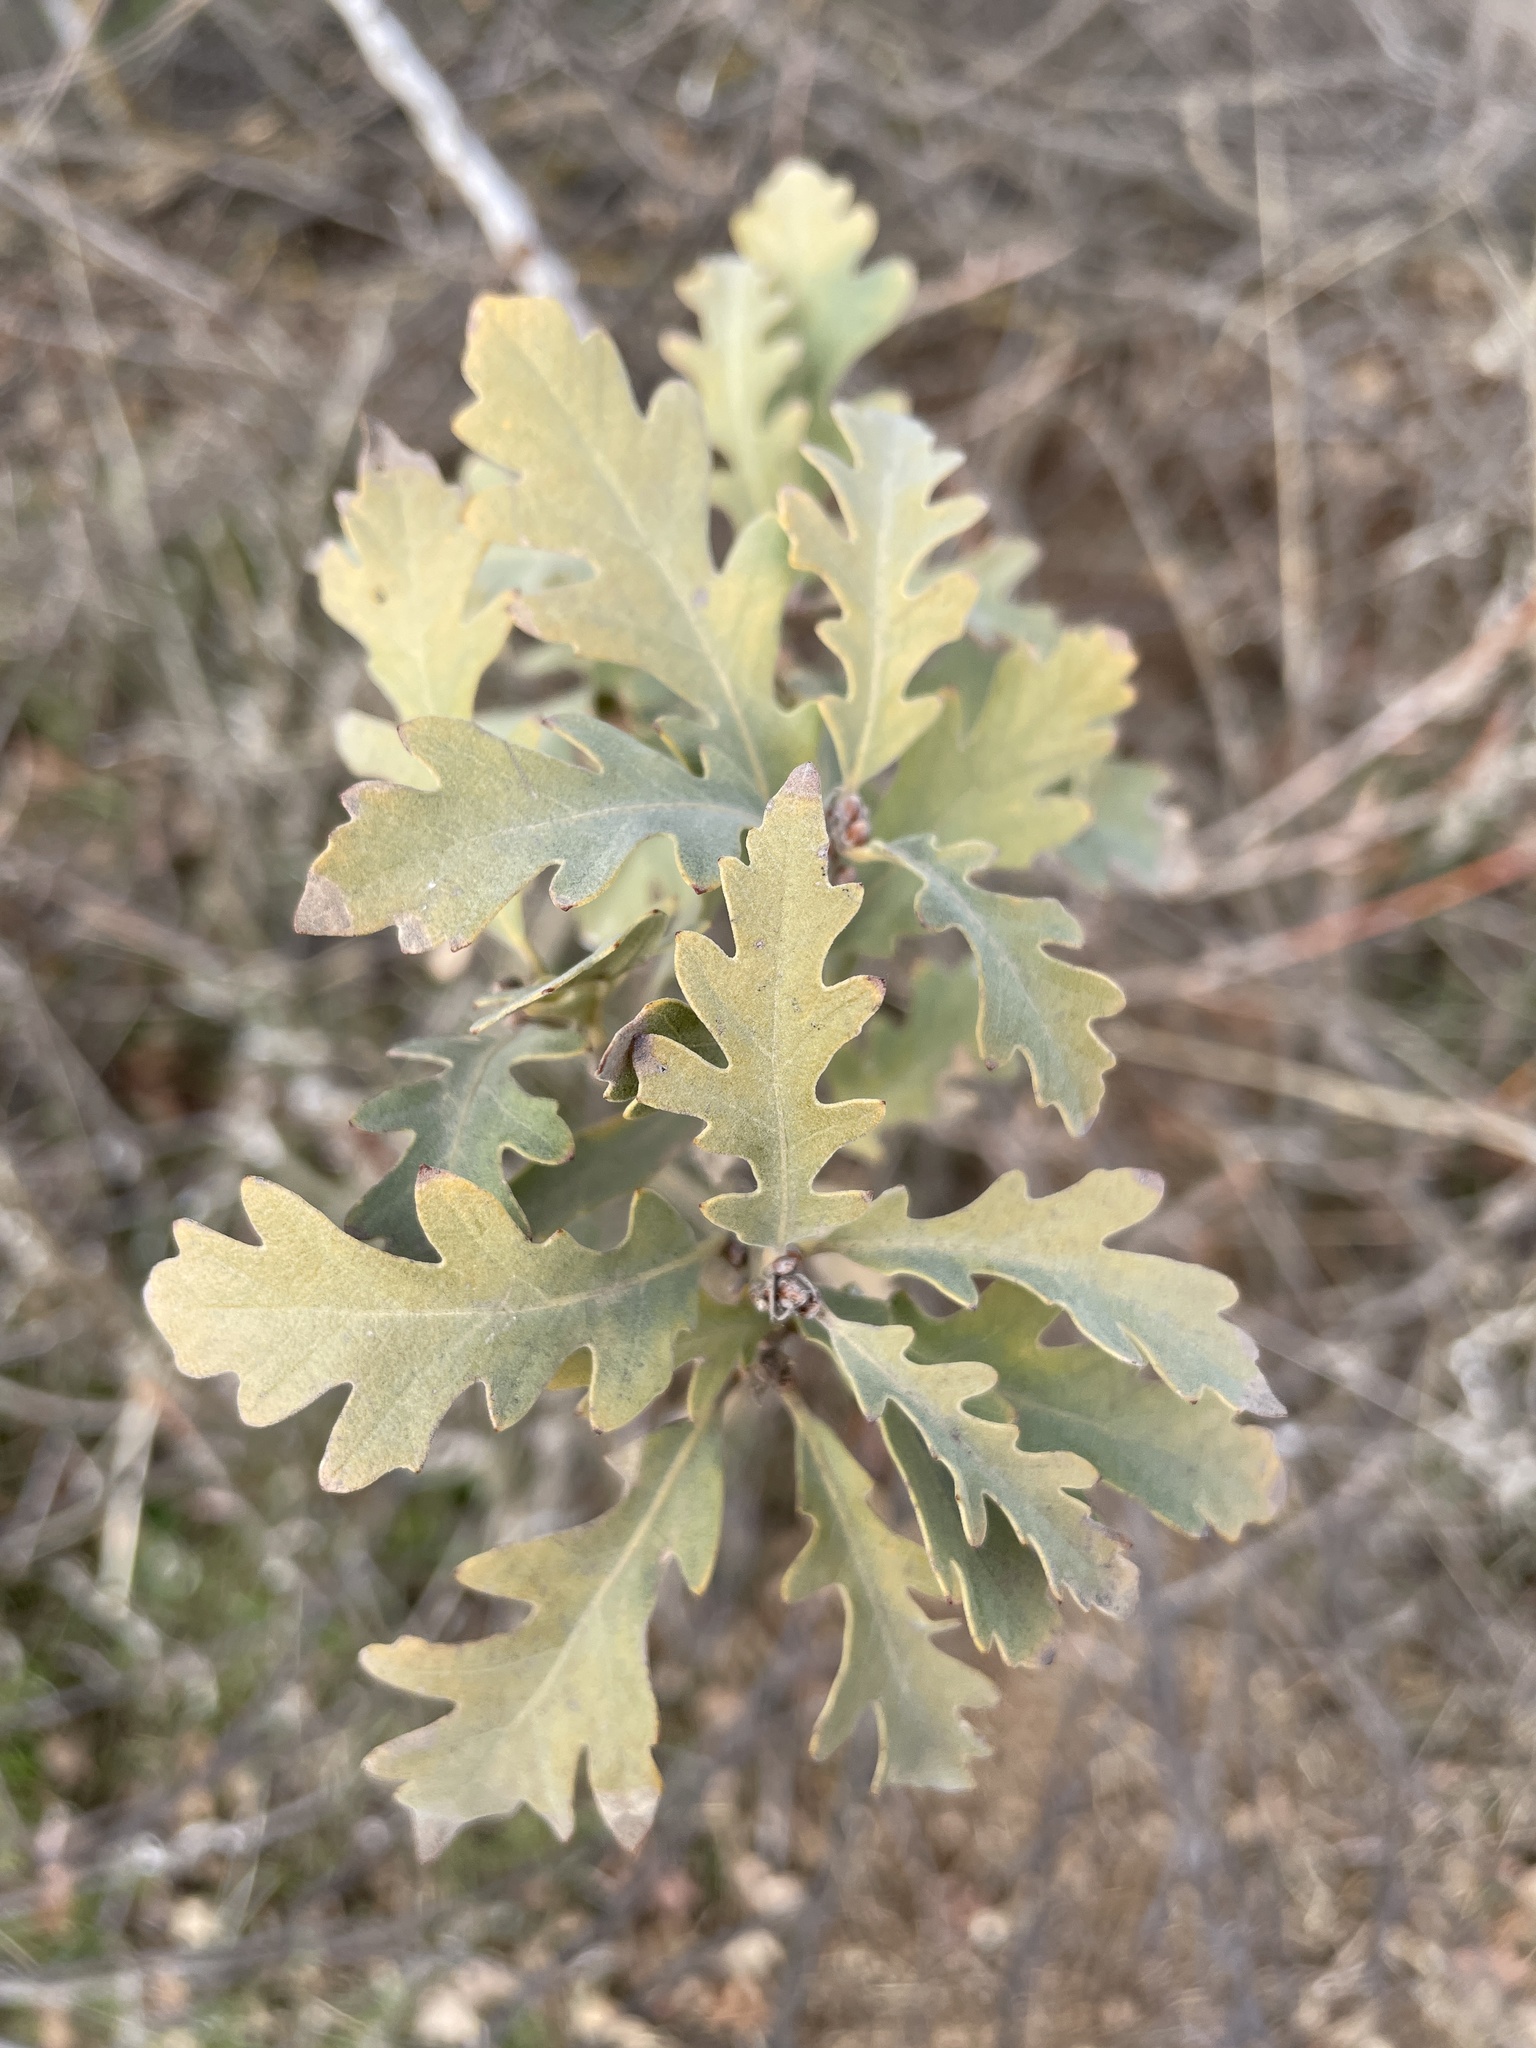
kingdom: Plantae
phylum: Tracheophyta
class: Magnoliopsida
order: Fagales
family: Fagaceae
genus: Quercus
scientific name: Quercus lobata
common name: Valley oak
